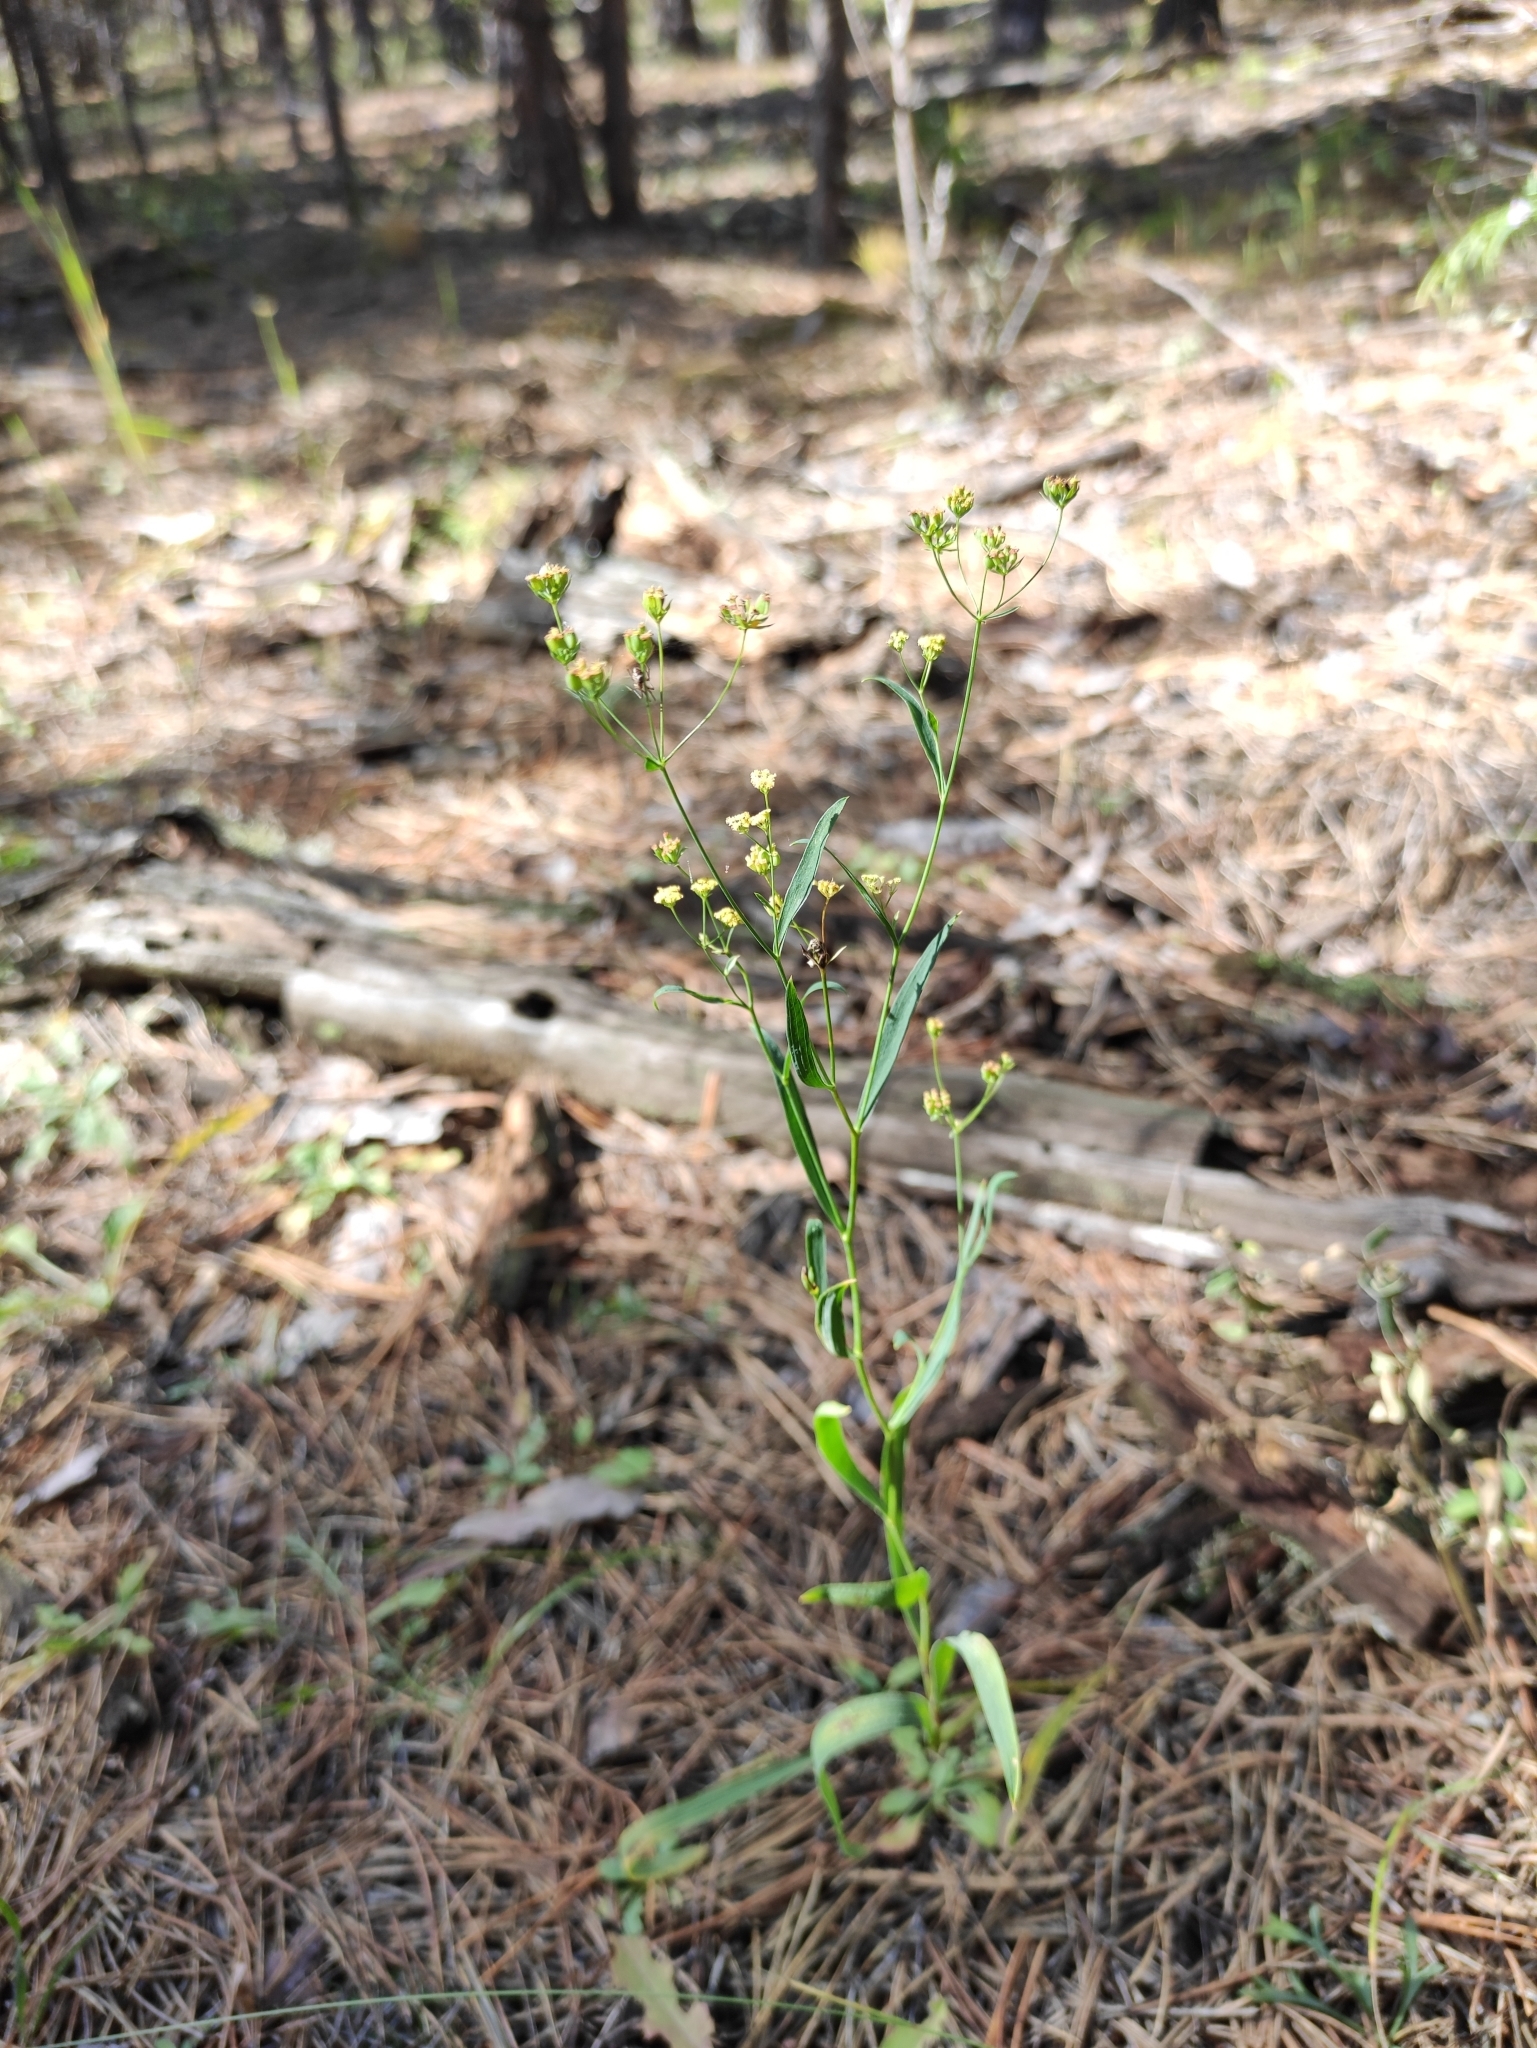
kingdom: Plantae
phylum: Tracheophyta
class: Magnoliopsida
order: Apiales
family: Apiaceae
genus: Bupleurum
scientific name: Bupleurum scorzonerifolium
